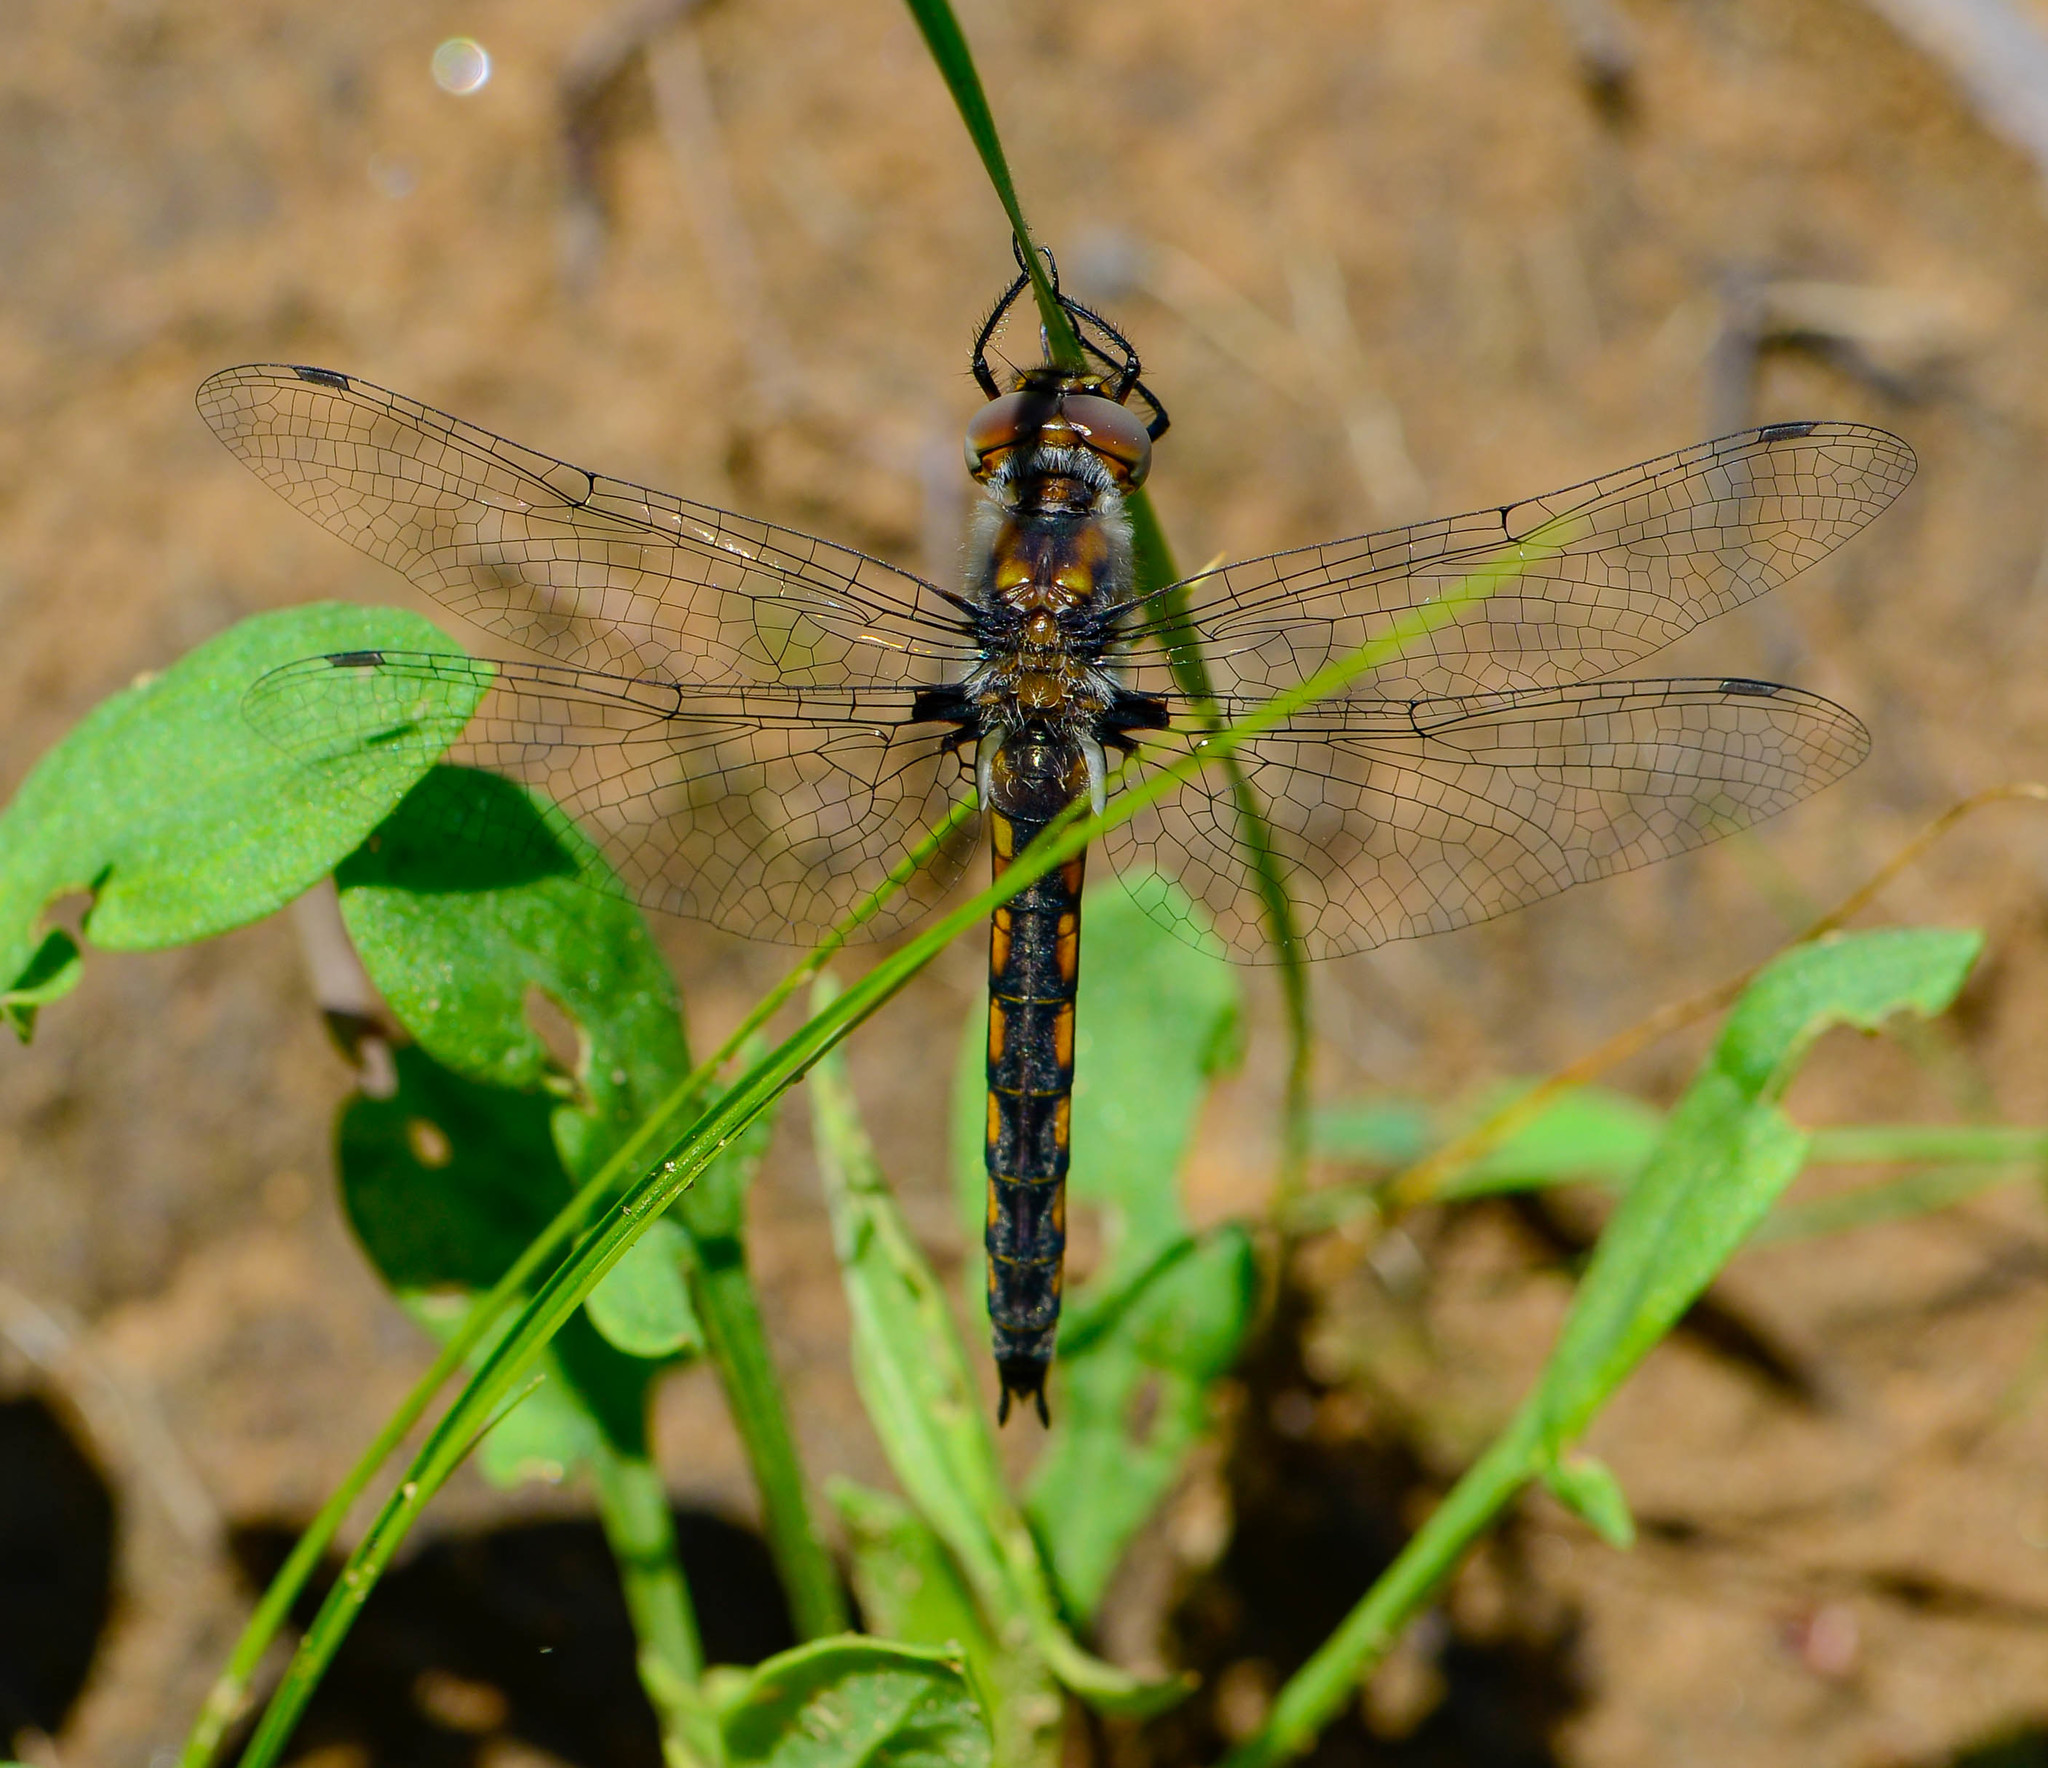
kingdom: Animalia
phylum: Arthropoda
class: Insecta
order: Odonata
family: Corduliidae
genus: Epitheca
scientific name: Epitheca cynosura
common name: Common baskettail
